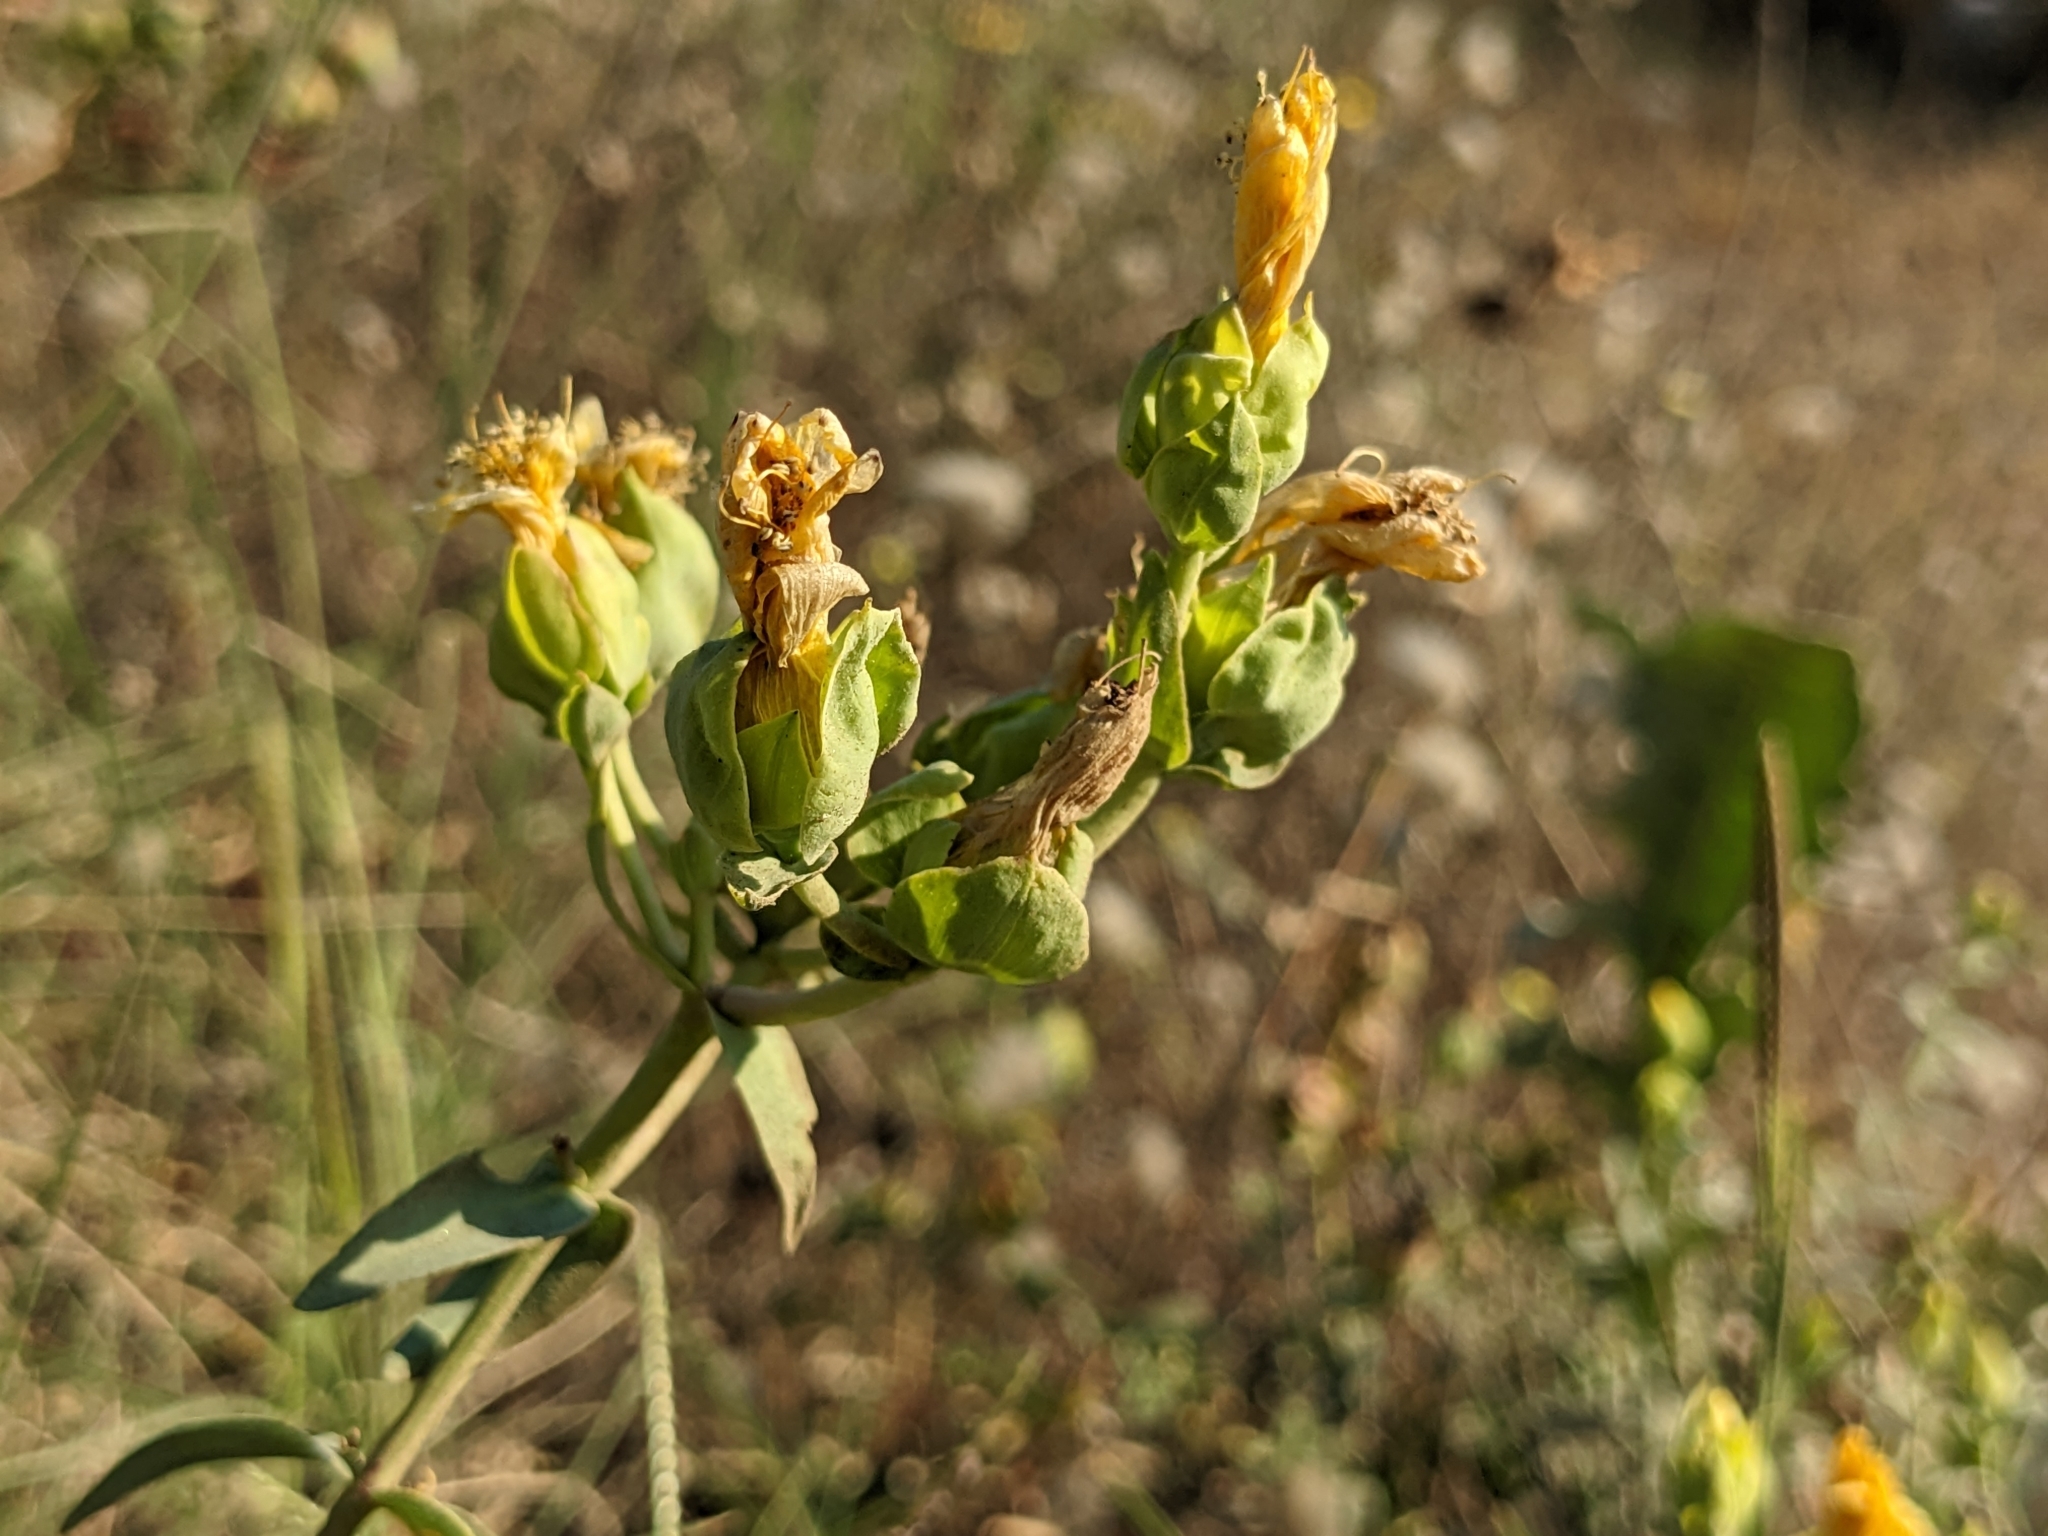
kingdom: Plantae
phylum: Tracheophyta
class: Magnoliopsida
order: Malpighiales
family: Hypericaceae
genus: Hypericum
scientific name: Hypericum olympicum
